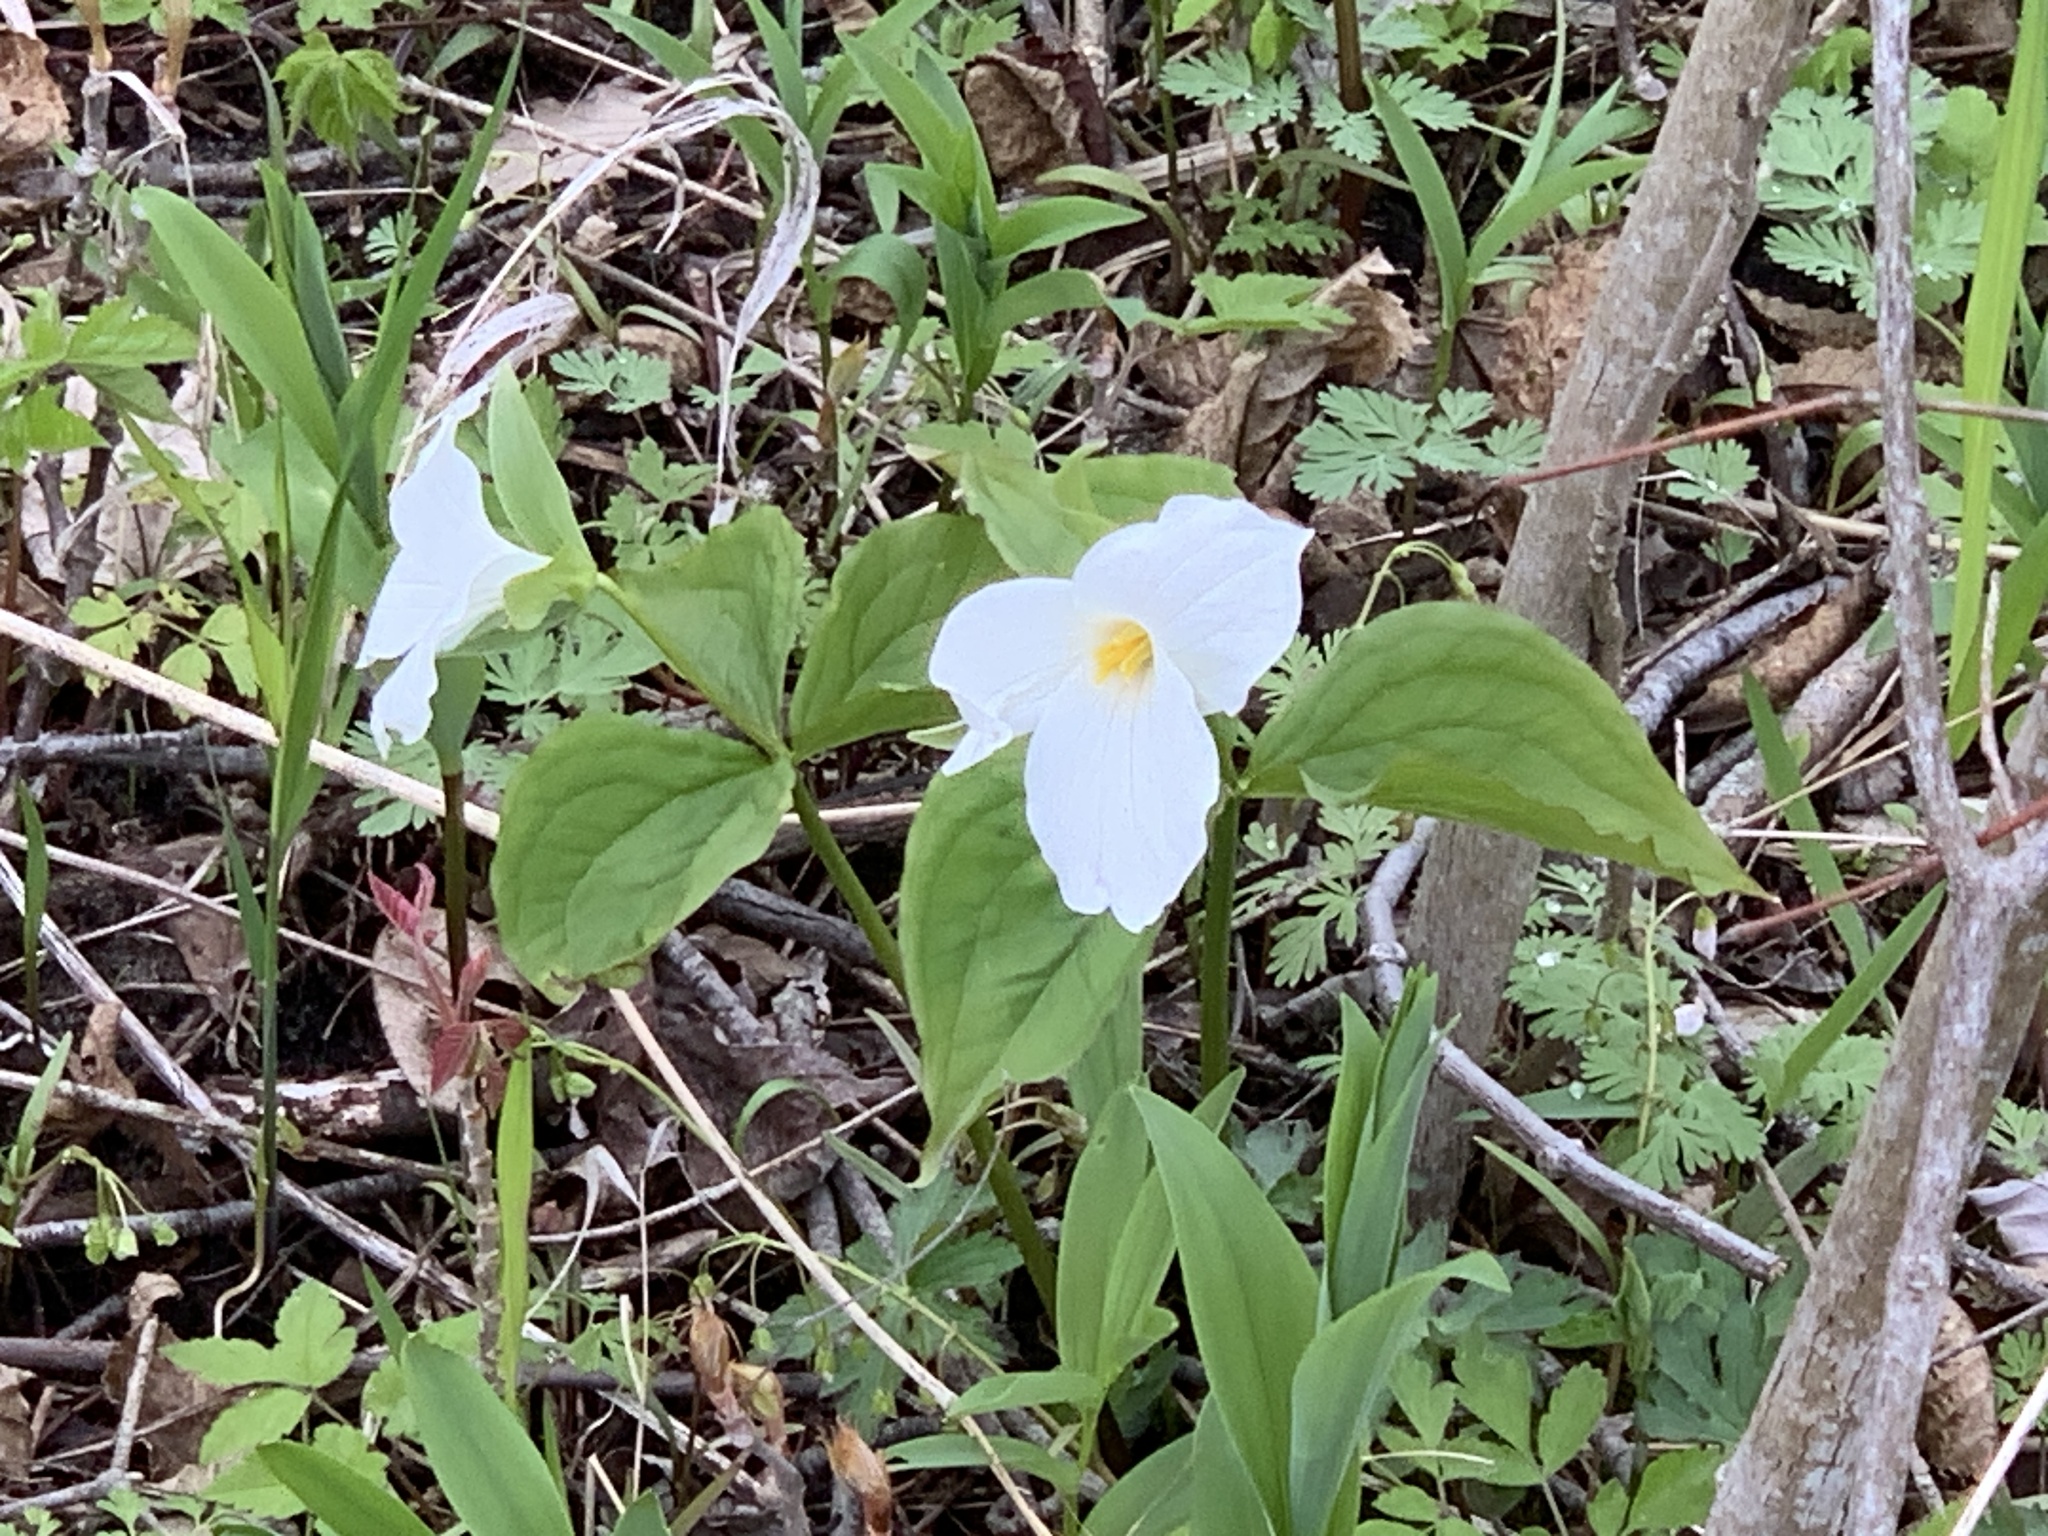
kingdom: Plantae
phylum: Tracheophyta
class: Liliopsida
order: Liliales
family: Melanthiaceae
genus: Trillium
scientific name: Trillium grandiflorum
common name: Great white trillium
